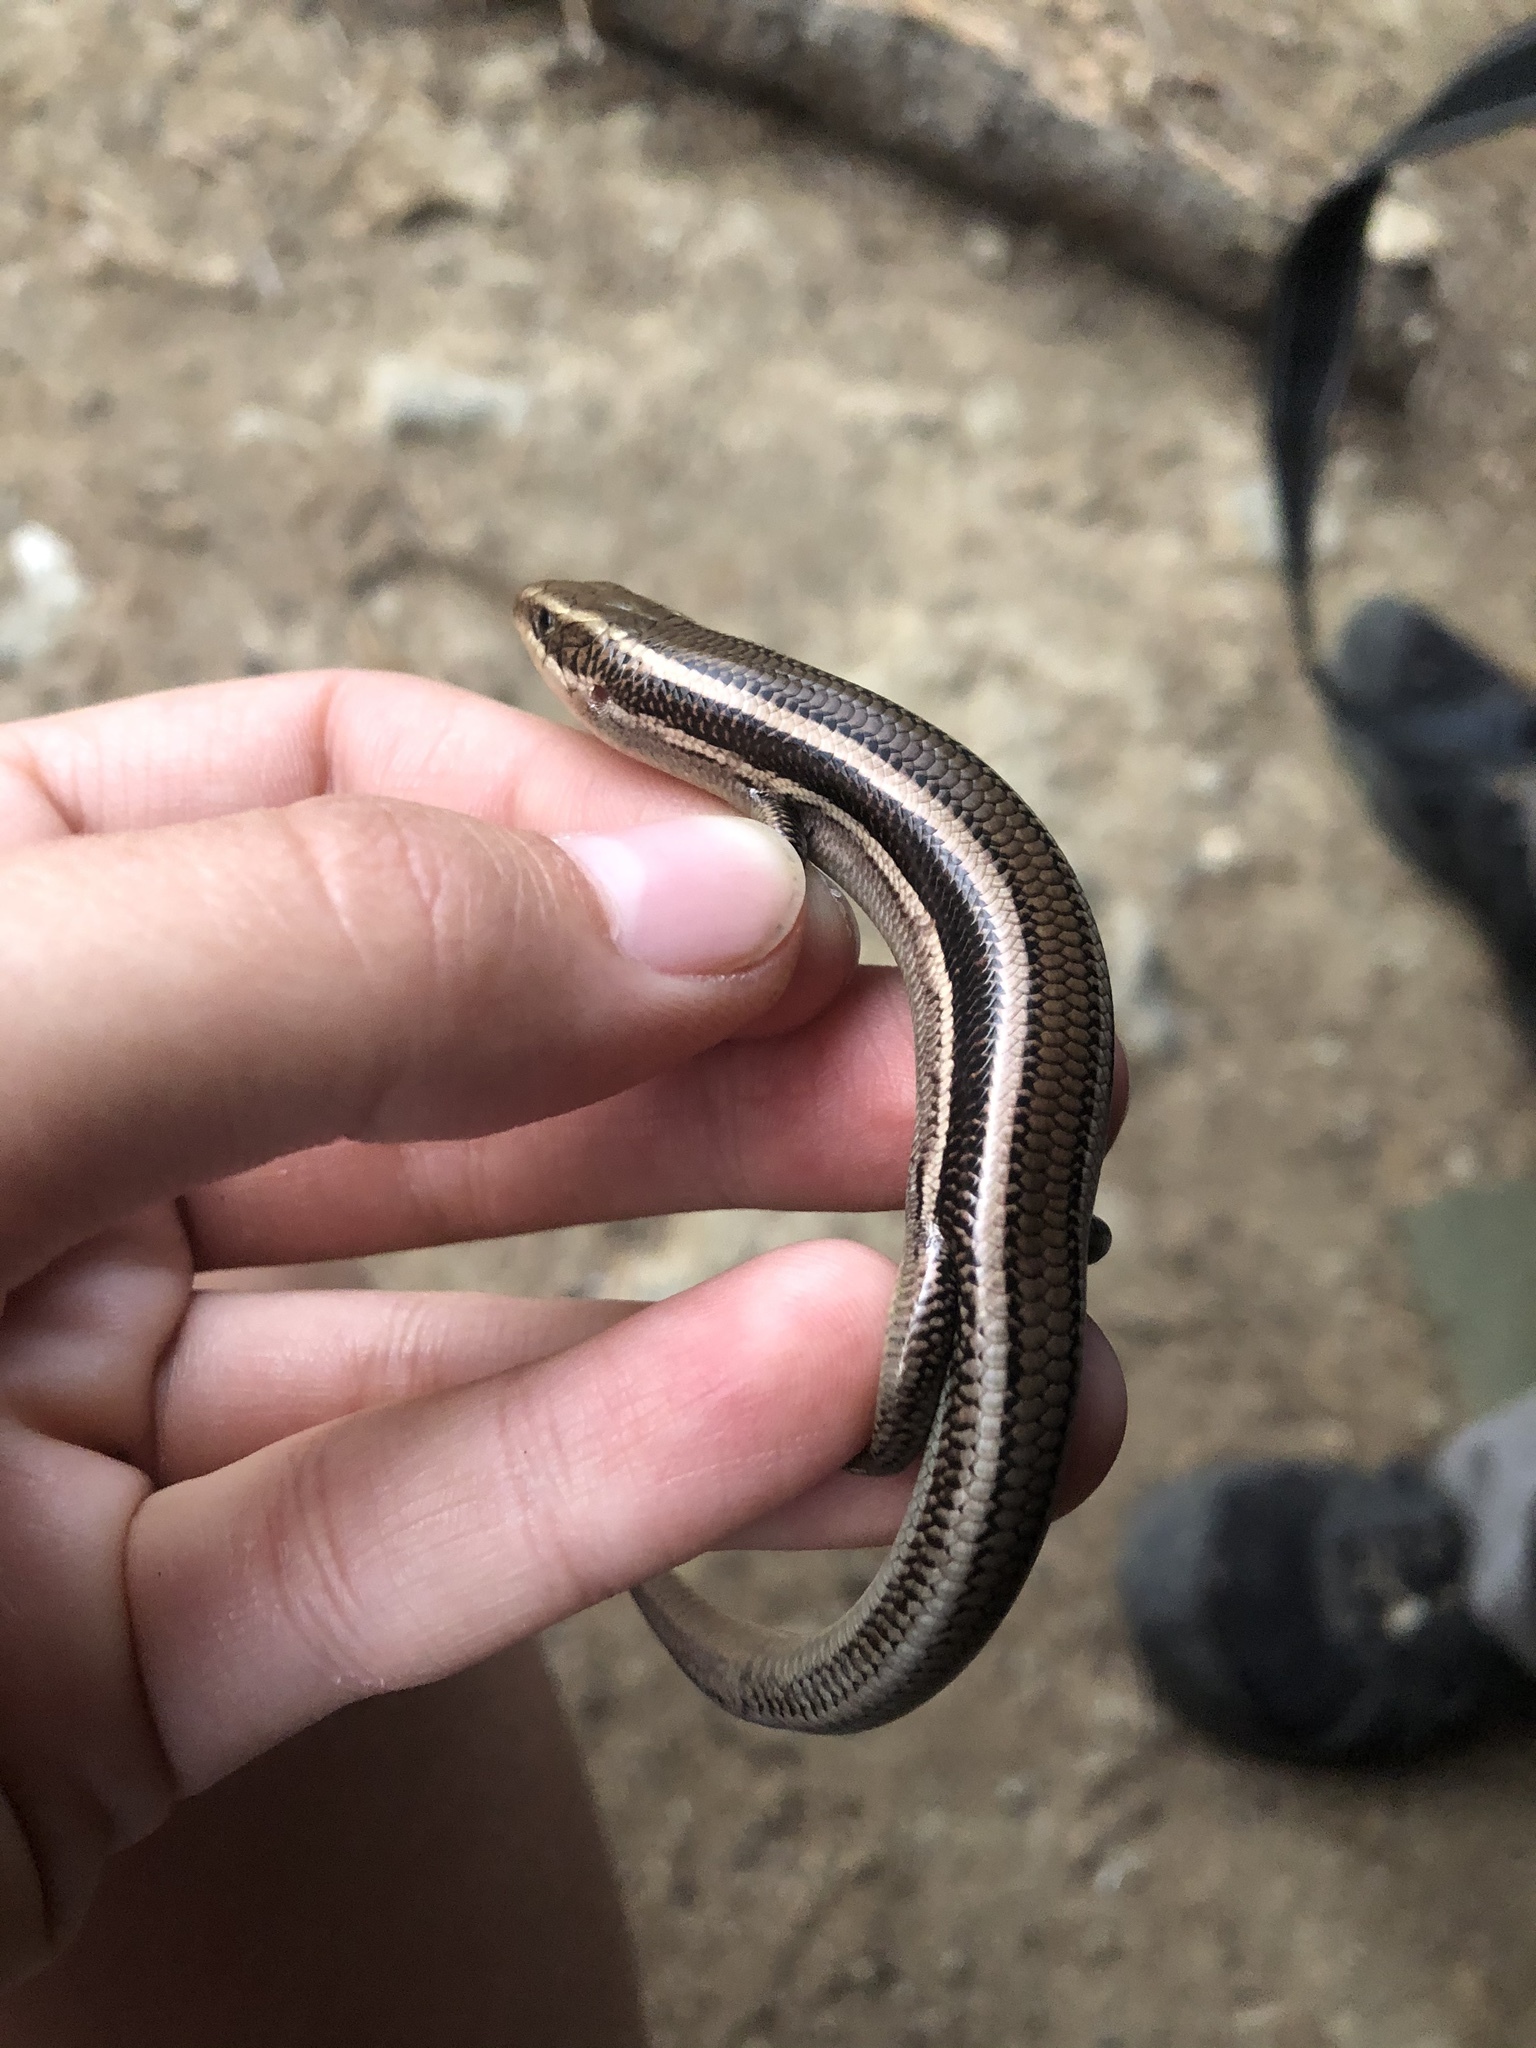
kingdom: Animalia
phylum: Chordata
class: Squamata
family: Scincidae
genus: Plestiodon
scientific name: Plestiodon skiltonianus
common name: Coronado island skink [interparietalis]
